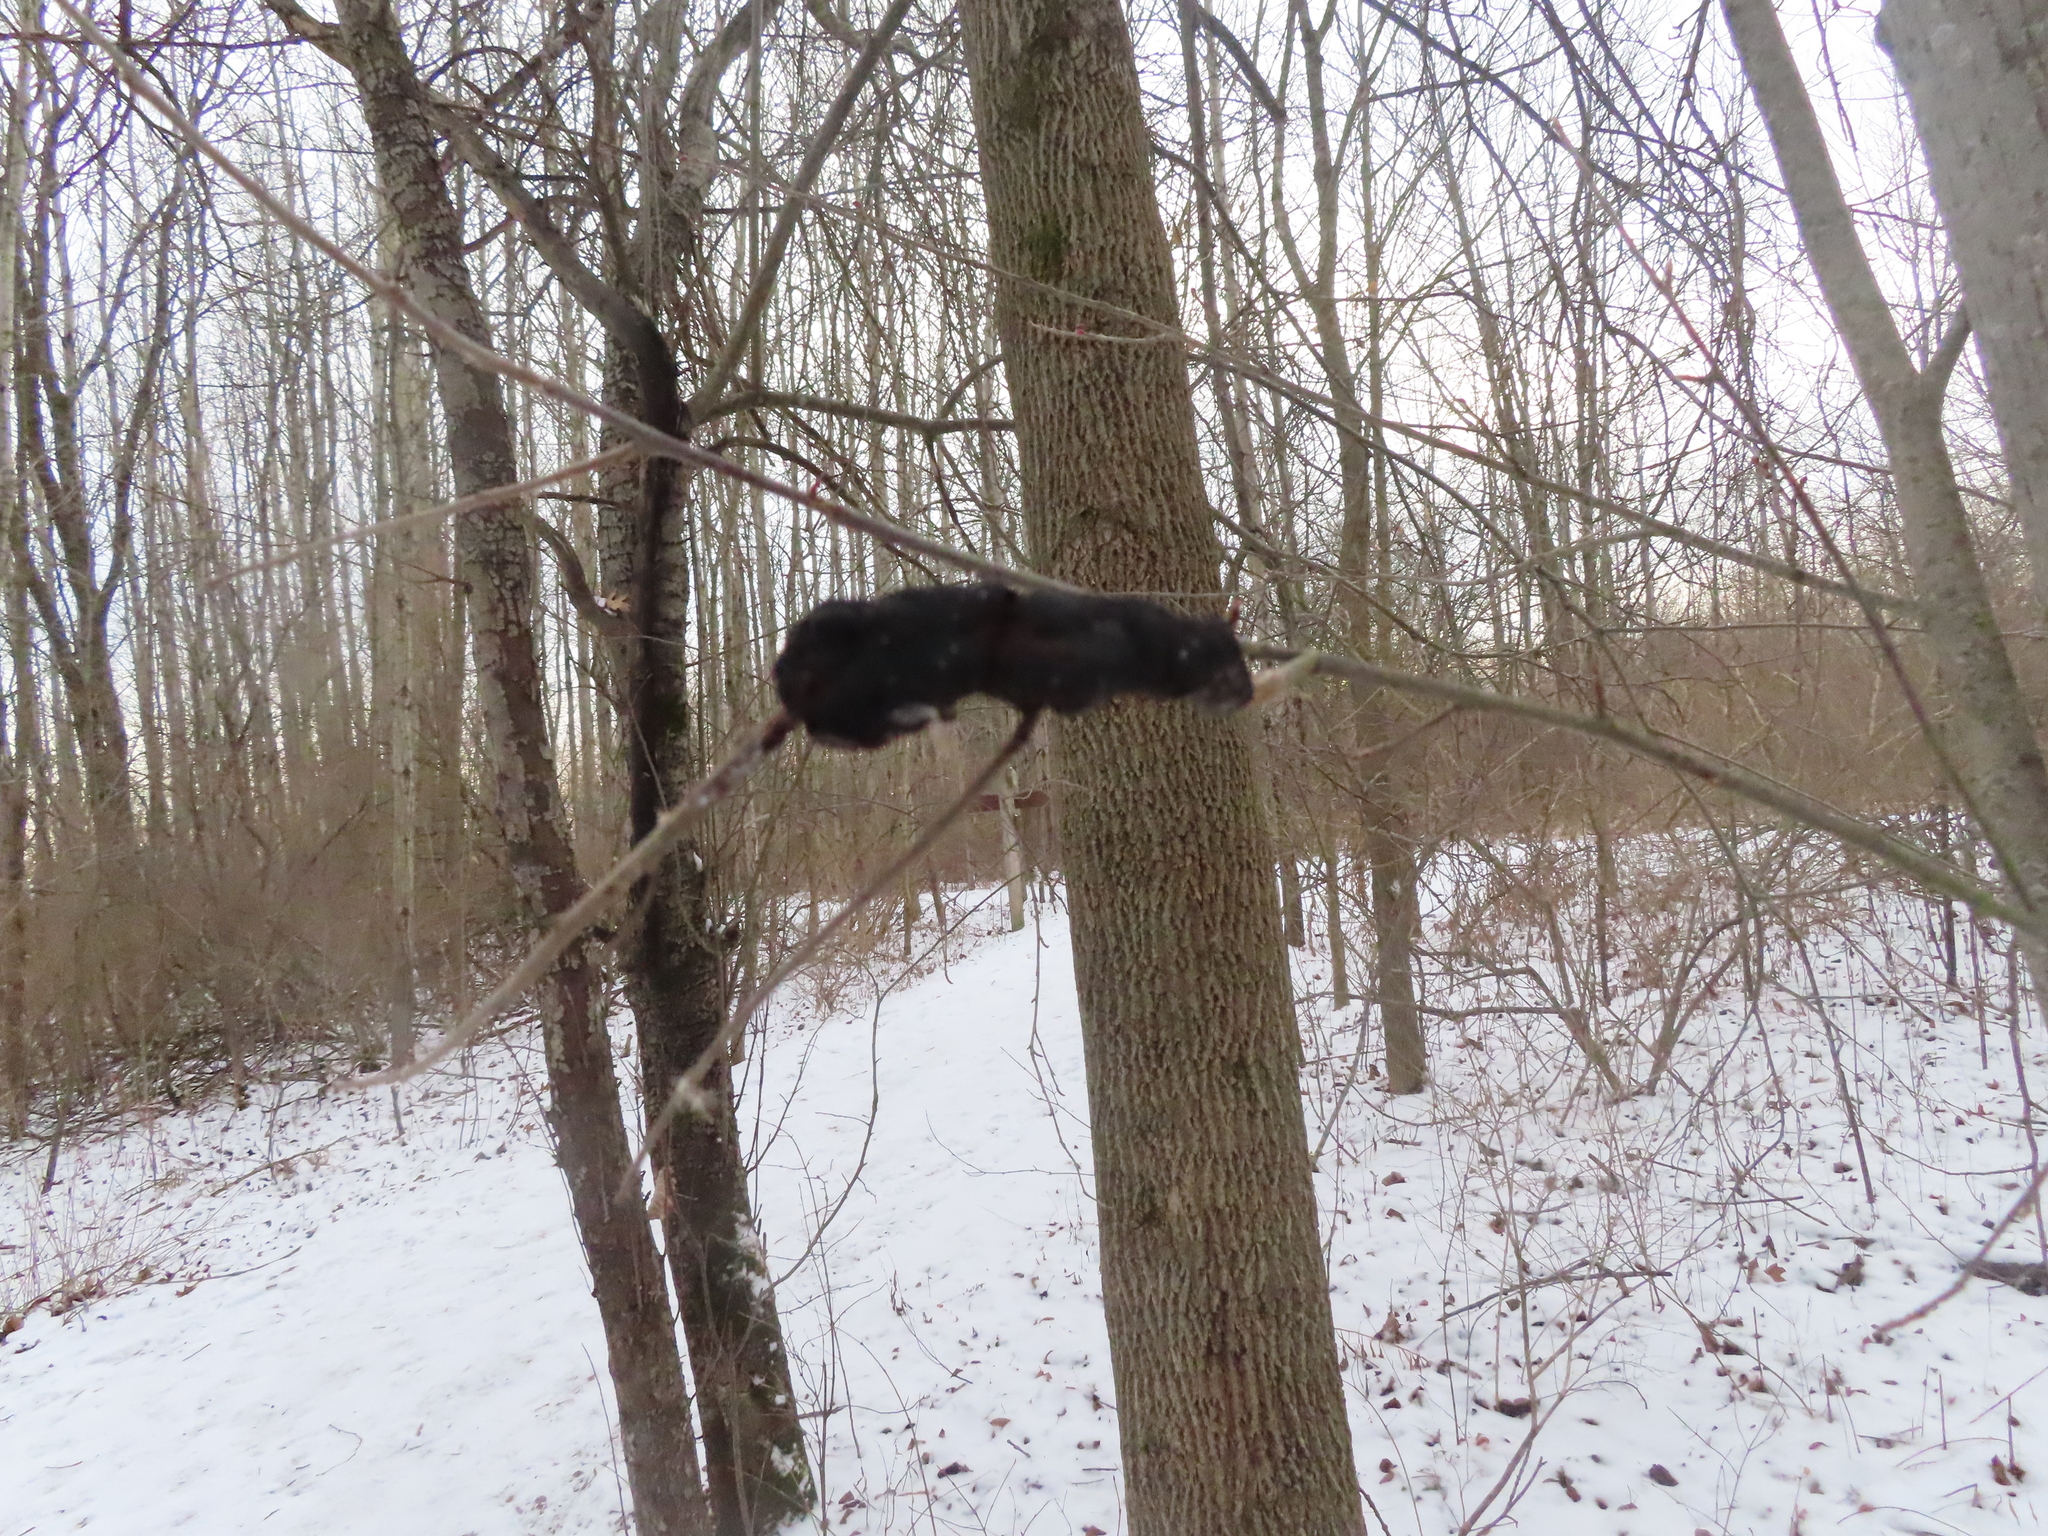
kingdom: Fungi
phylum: Ascomycota
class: Dothideomycetes
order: Venturiales
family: Venturiaceae
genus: Apiosporina
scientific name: Apiosporina morbosa
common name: Black knot
